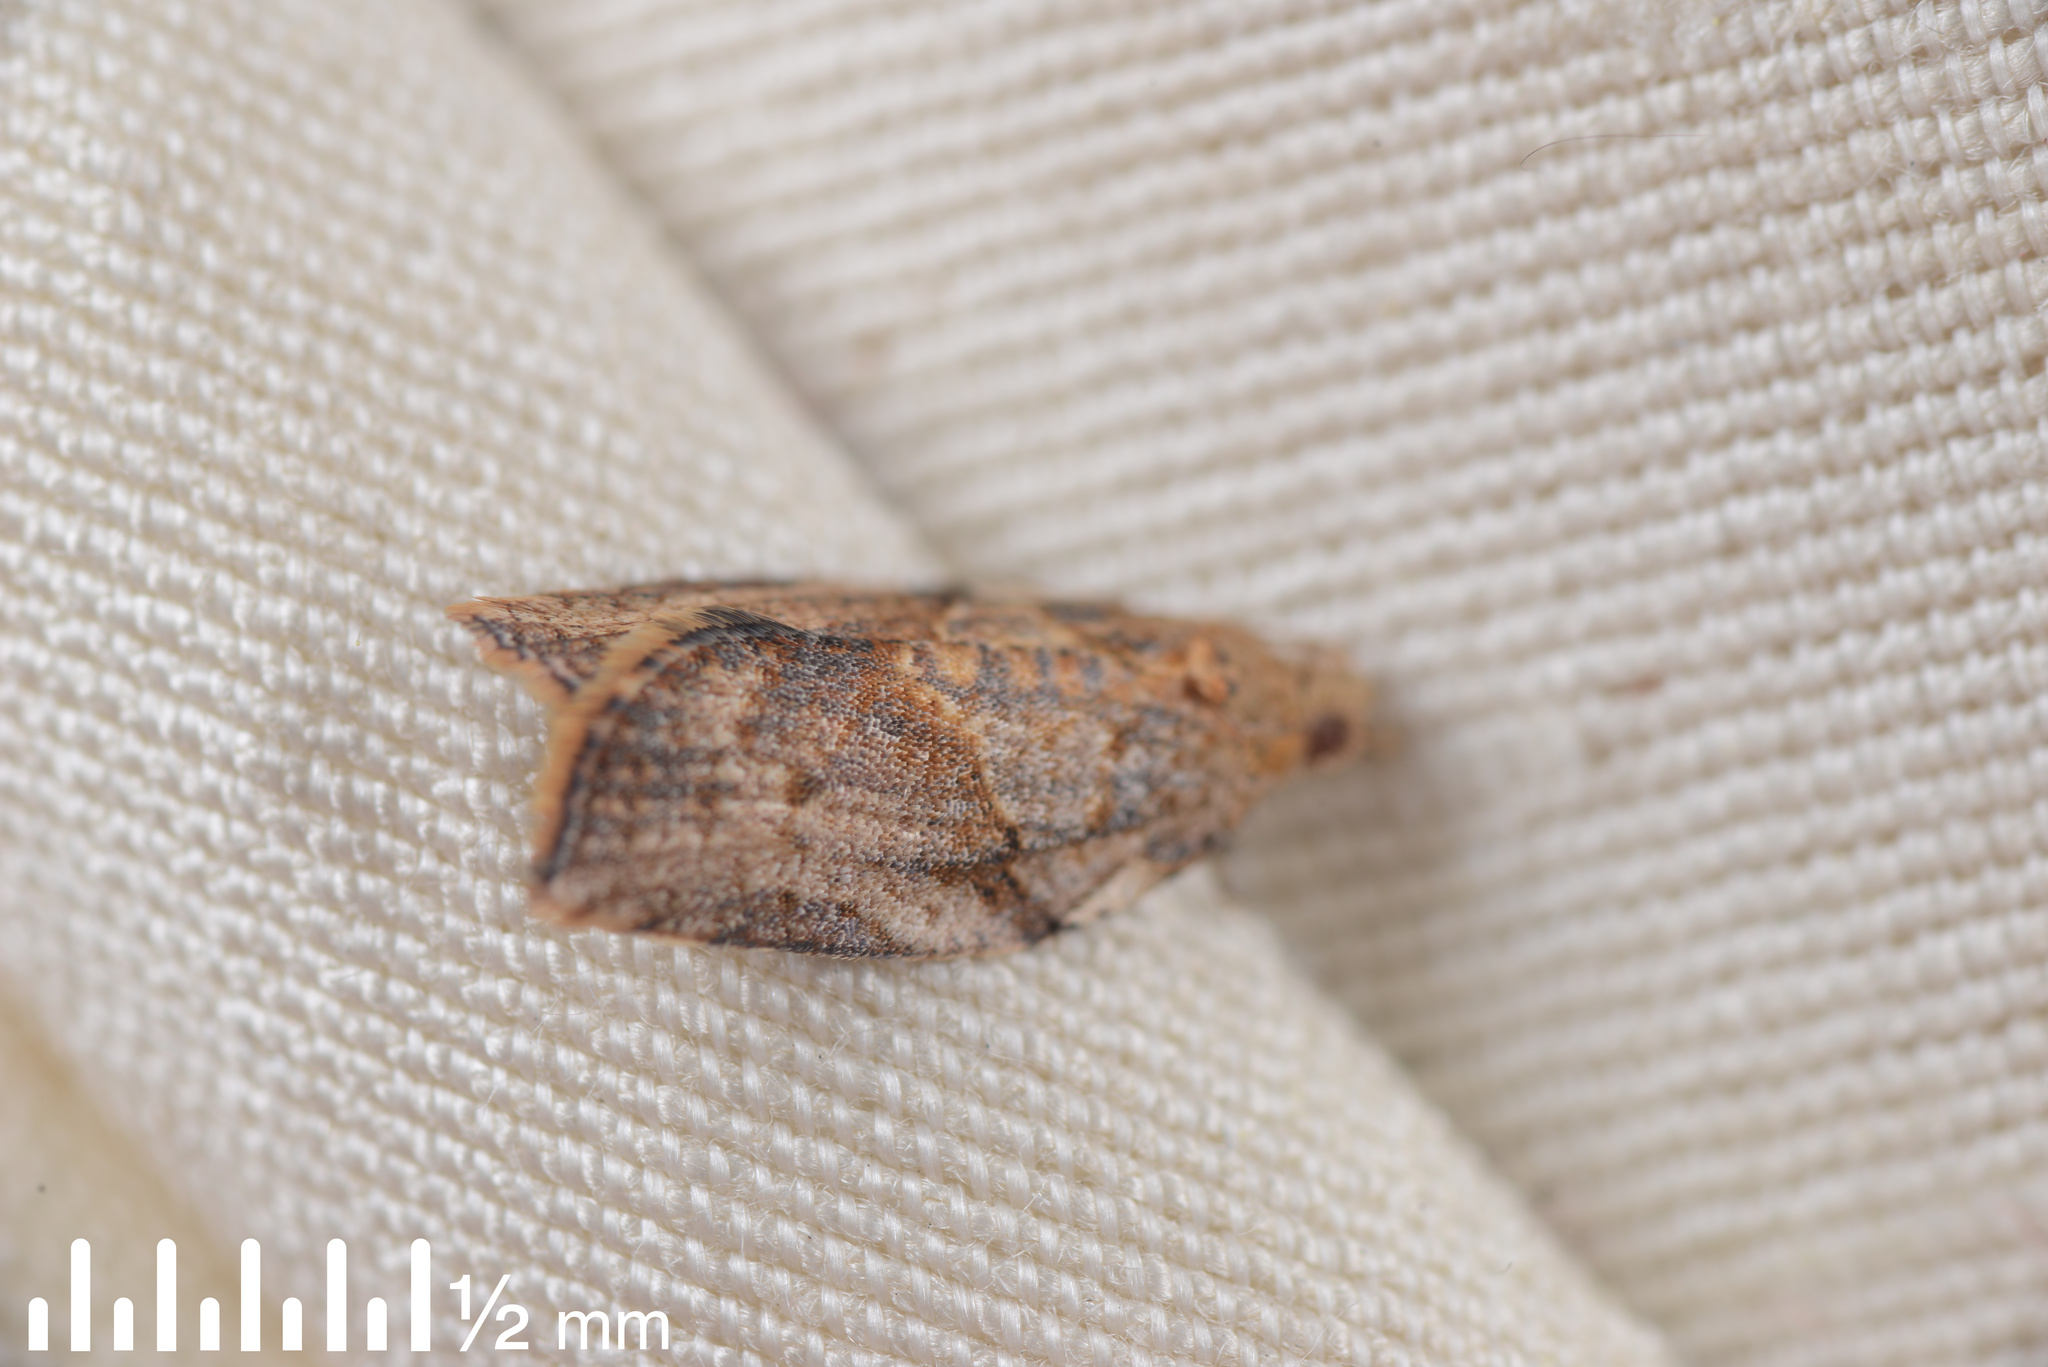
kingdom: Animalia
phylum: Arthropoda
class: Insecta
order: Lepidoptera
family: Tortricidae
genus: Epiphyas
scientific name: Epiphyas postvittana
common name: Light brown apple moth
